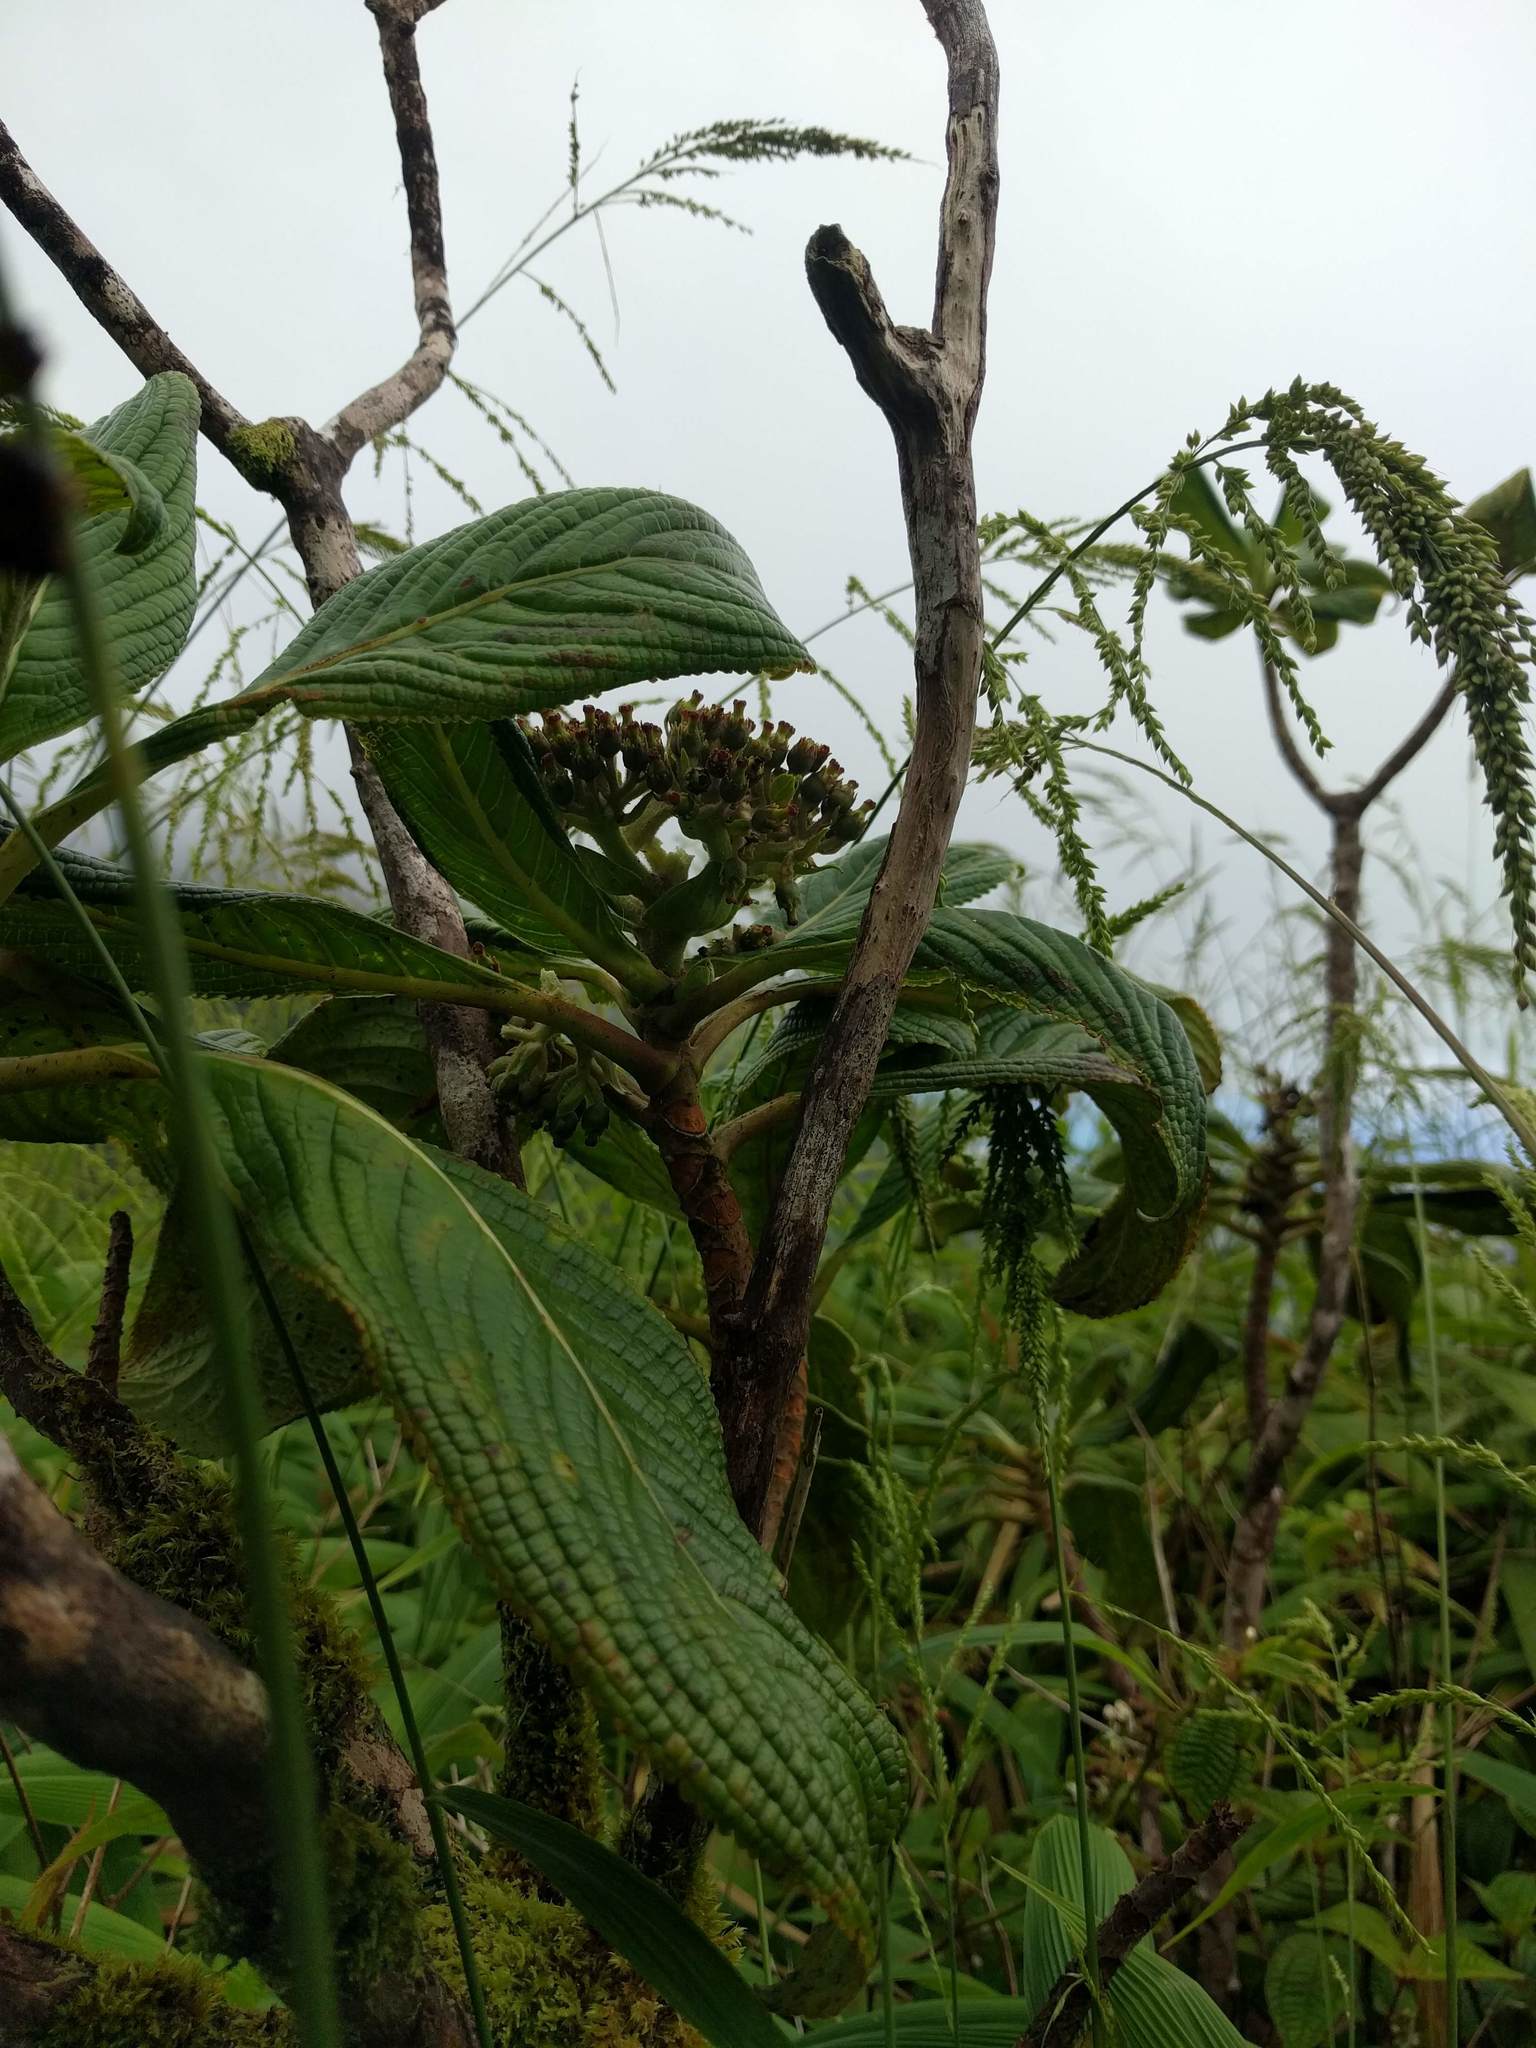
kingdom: Plantae
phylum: Tracheophyta
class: Magnoliopsida
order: Cornales
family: Hydrangeaceae
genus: Hydrangea
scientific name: Hydrangea arguta
